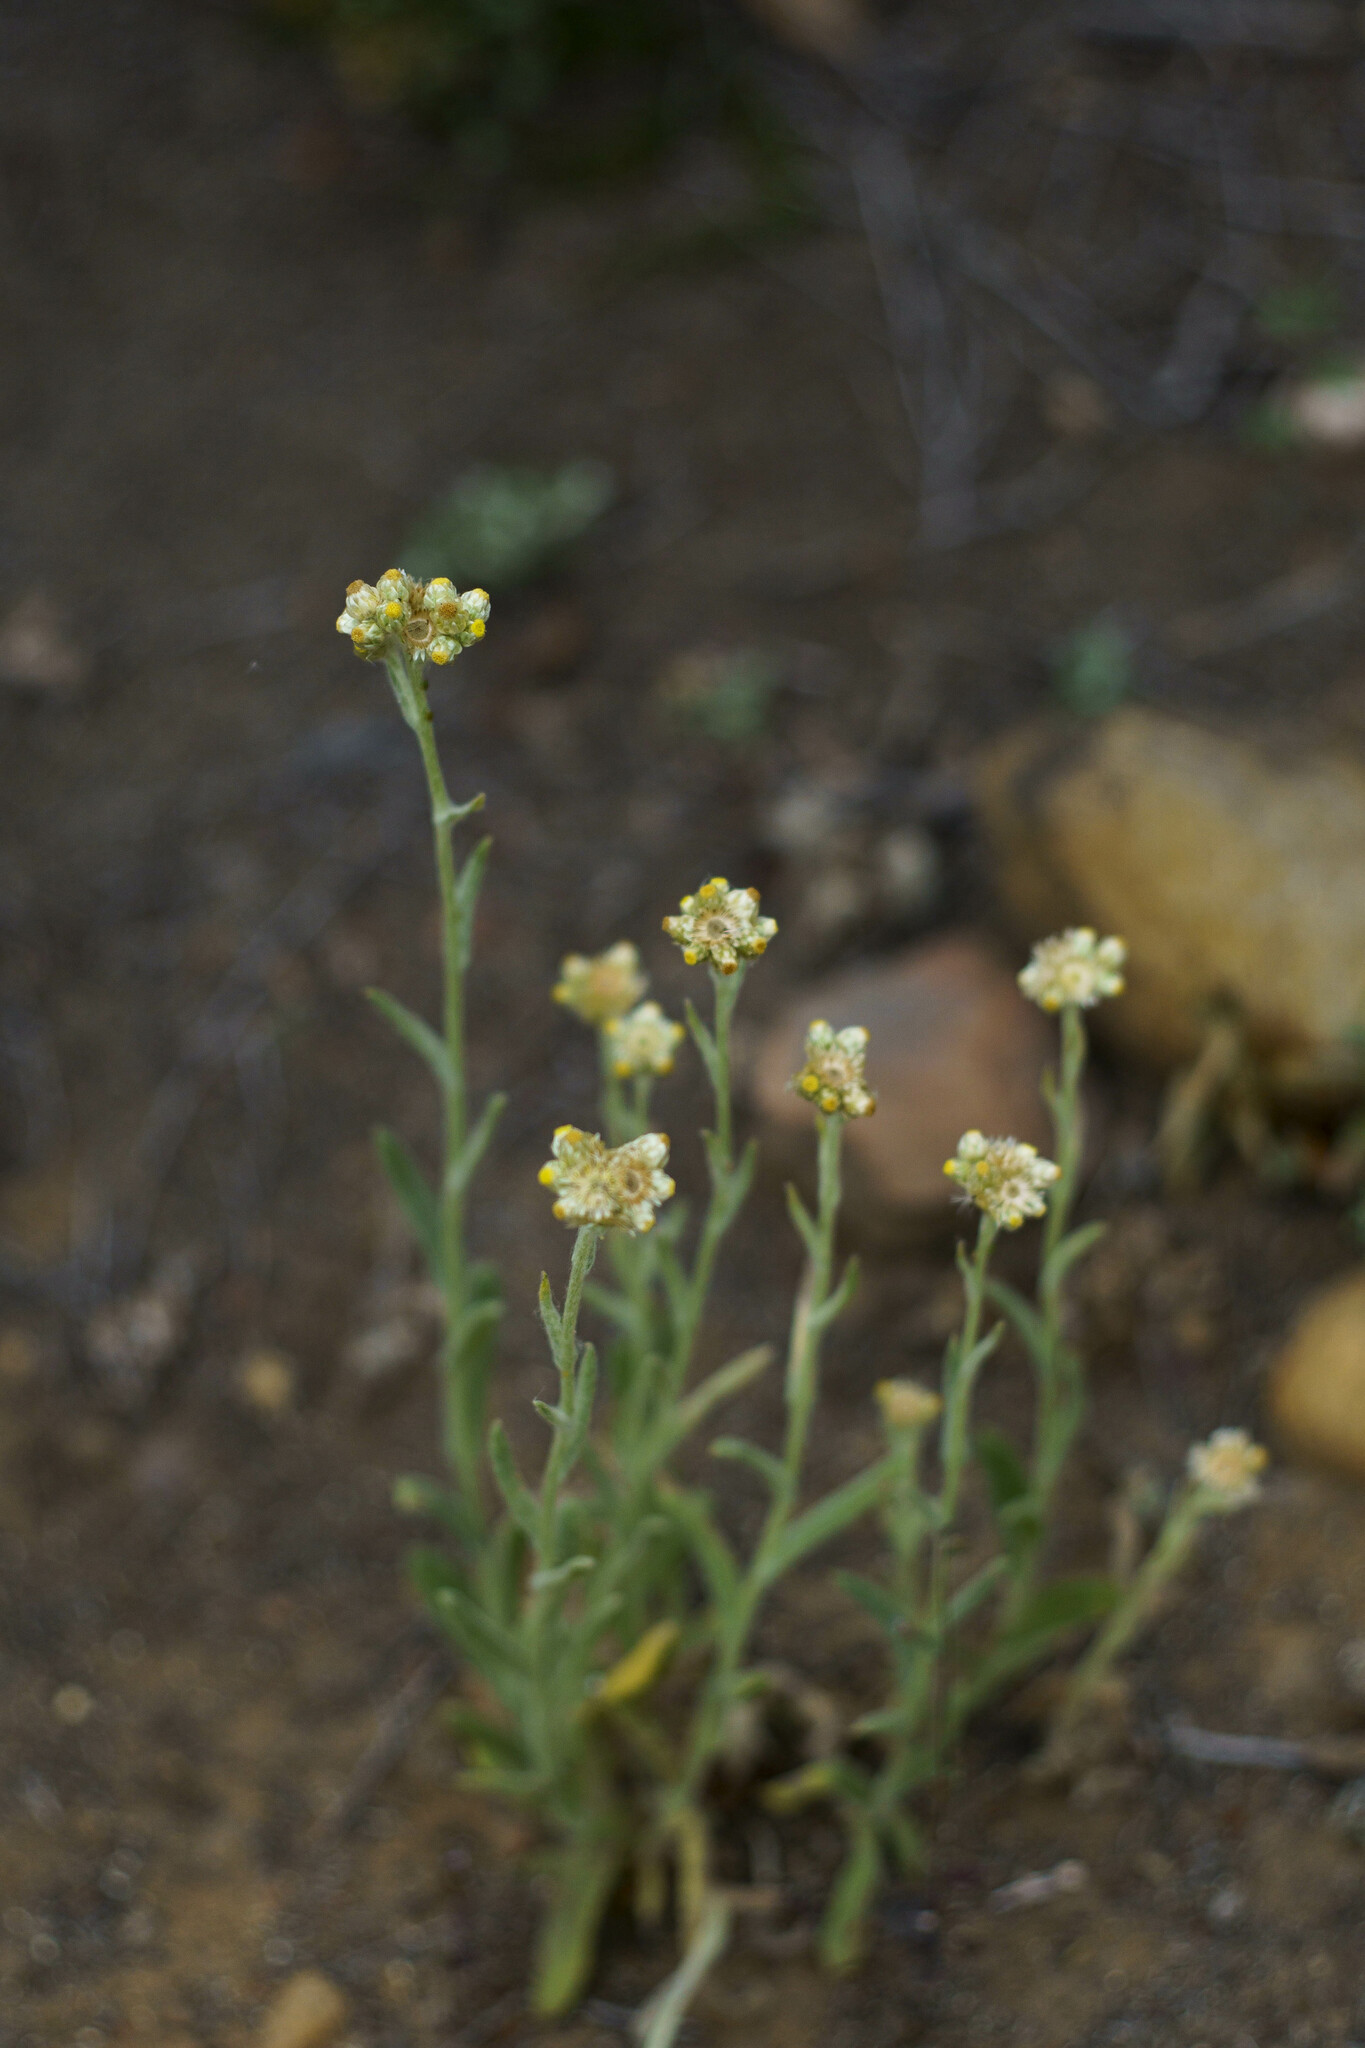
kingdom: Plantae
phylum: Tracheophyta
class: Magnoliopsida
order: Asterales
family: Asteraceae
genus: Pseudognaphalium
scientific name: Pseudognaphalium stramineum
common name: Cotton-batting-plant
